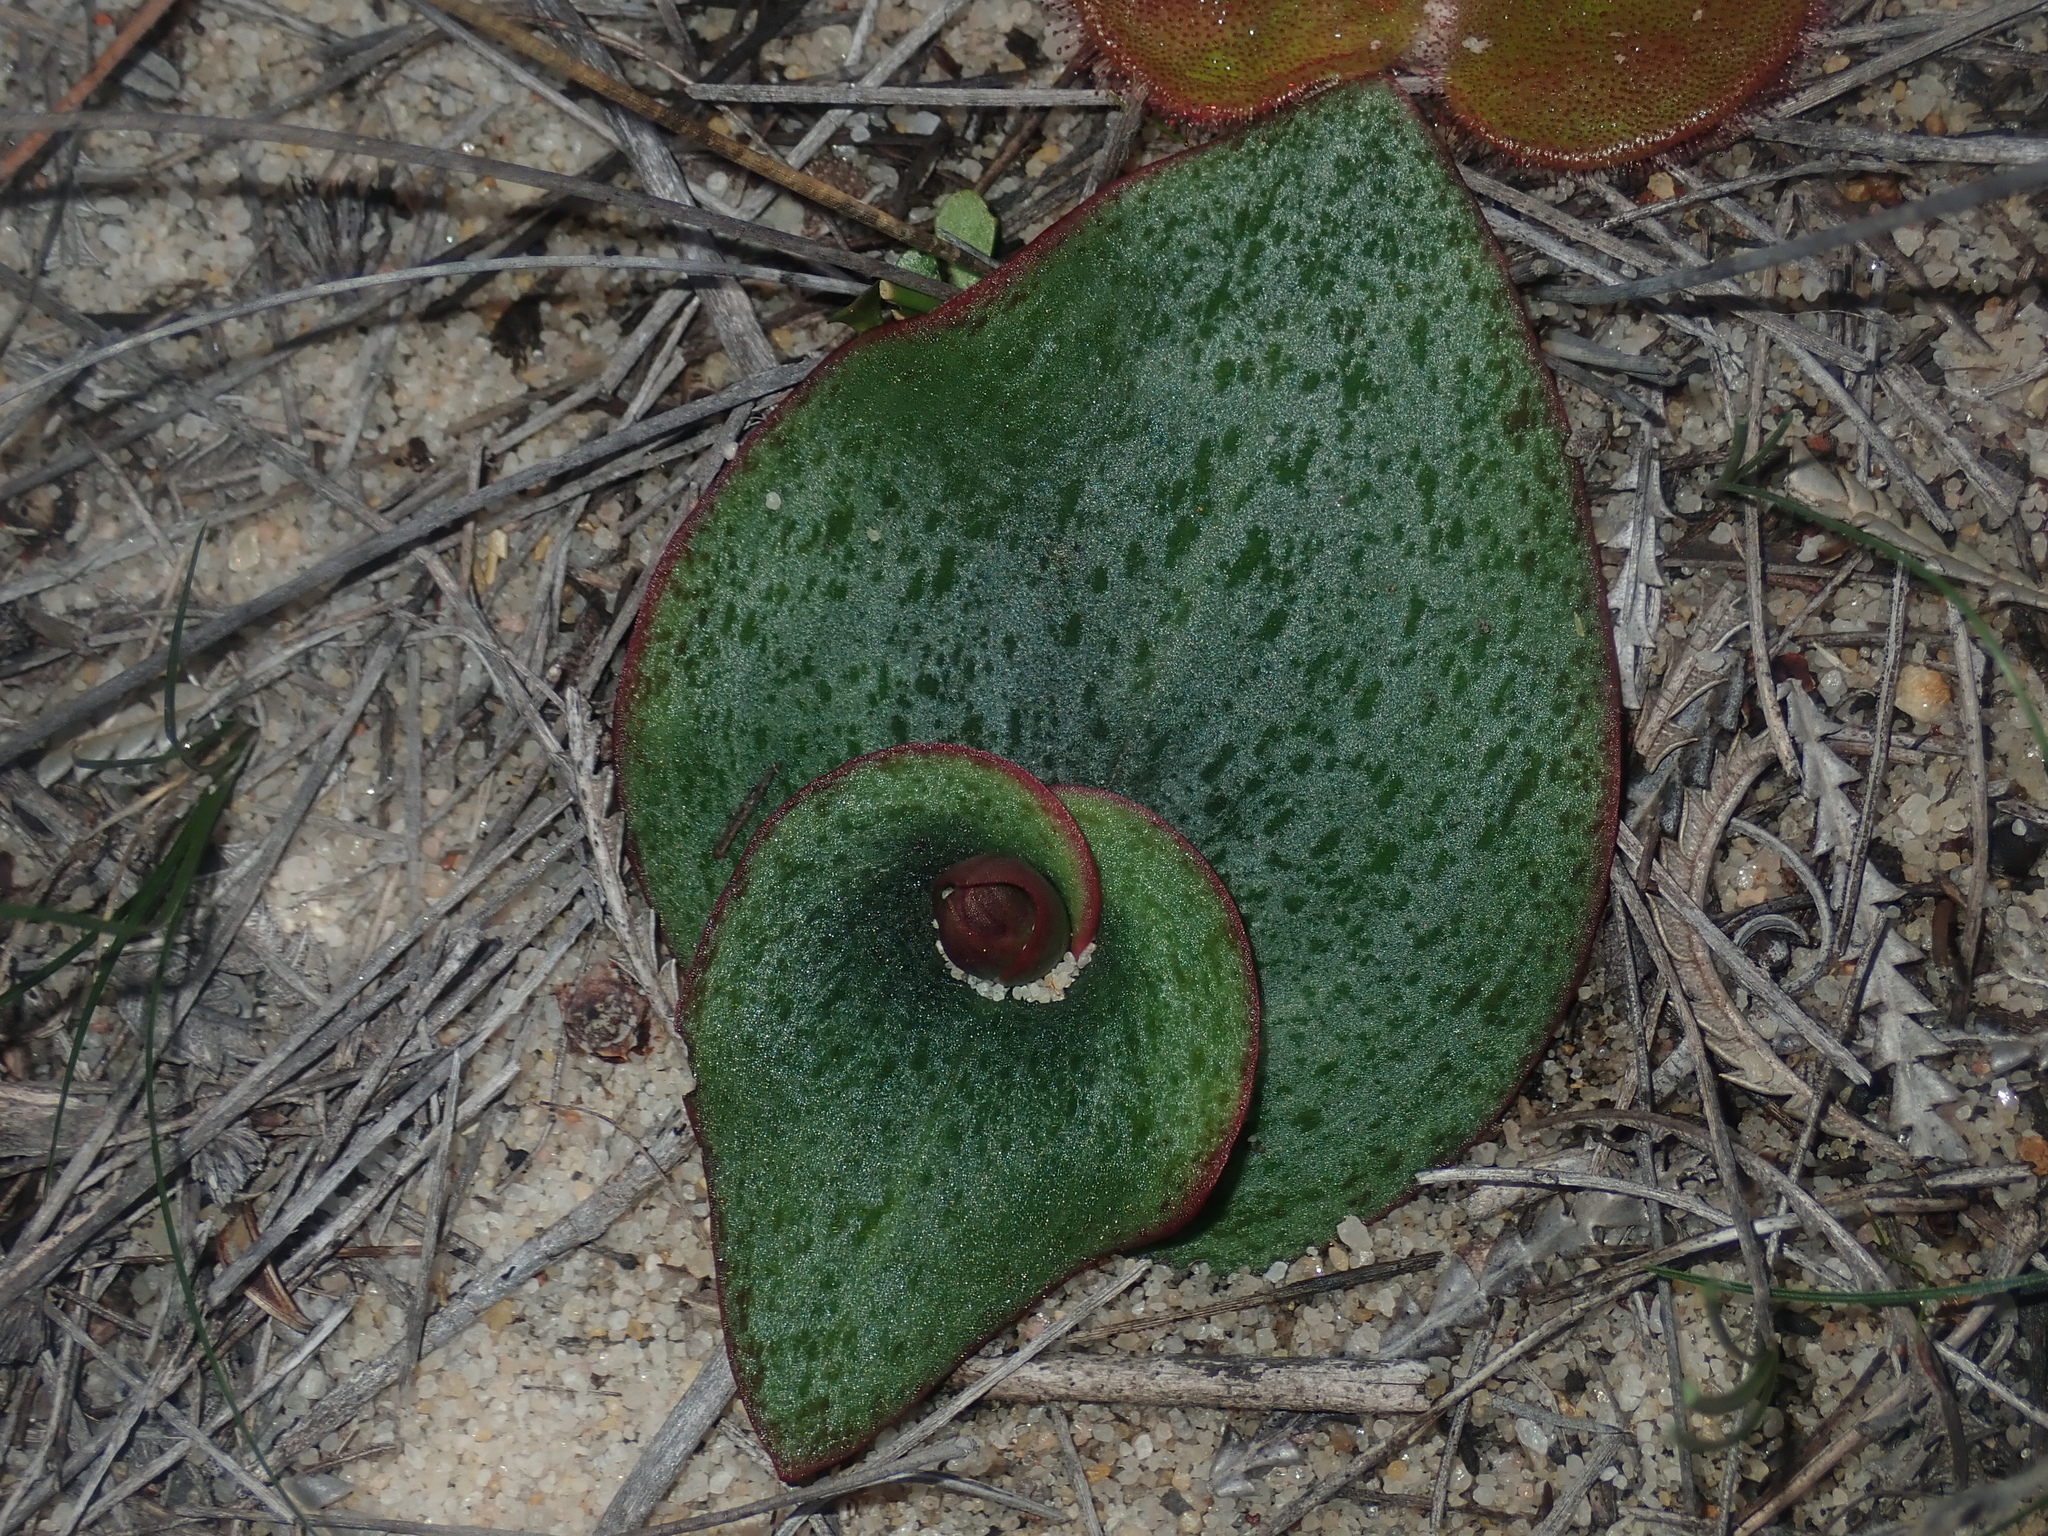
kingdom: Plantae
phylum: Tracheophyta
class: Liliopsida
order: Asparagales
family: Orchidaceae
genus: Pyrorchis
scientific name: Pyrorchis nigricans
